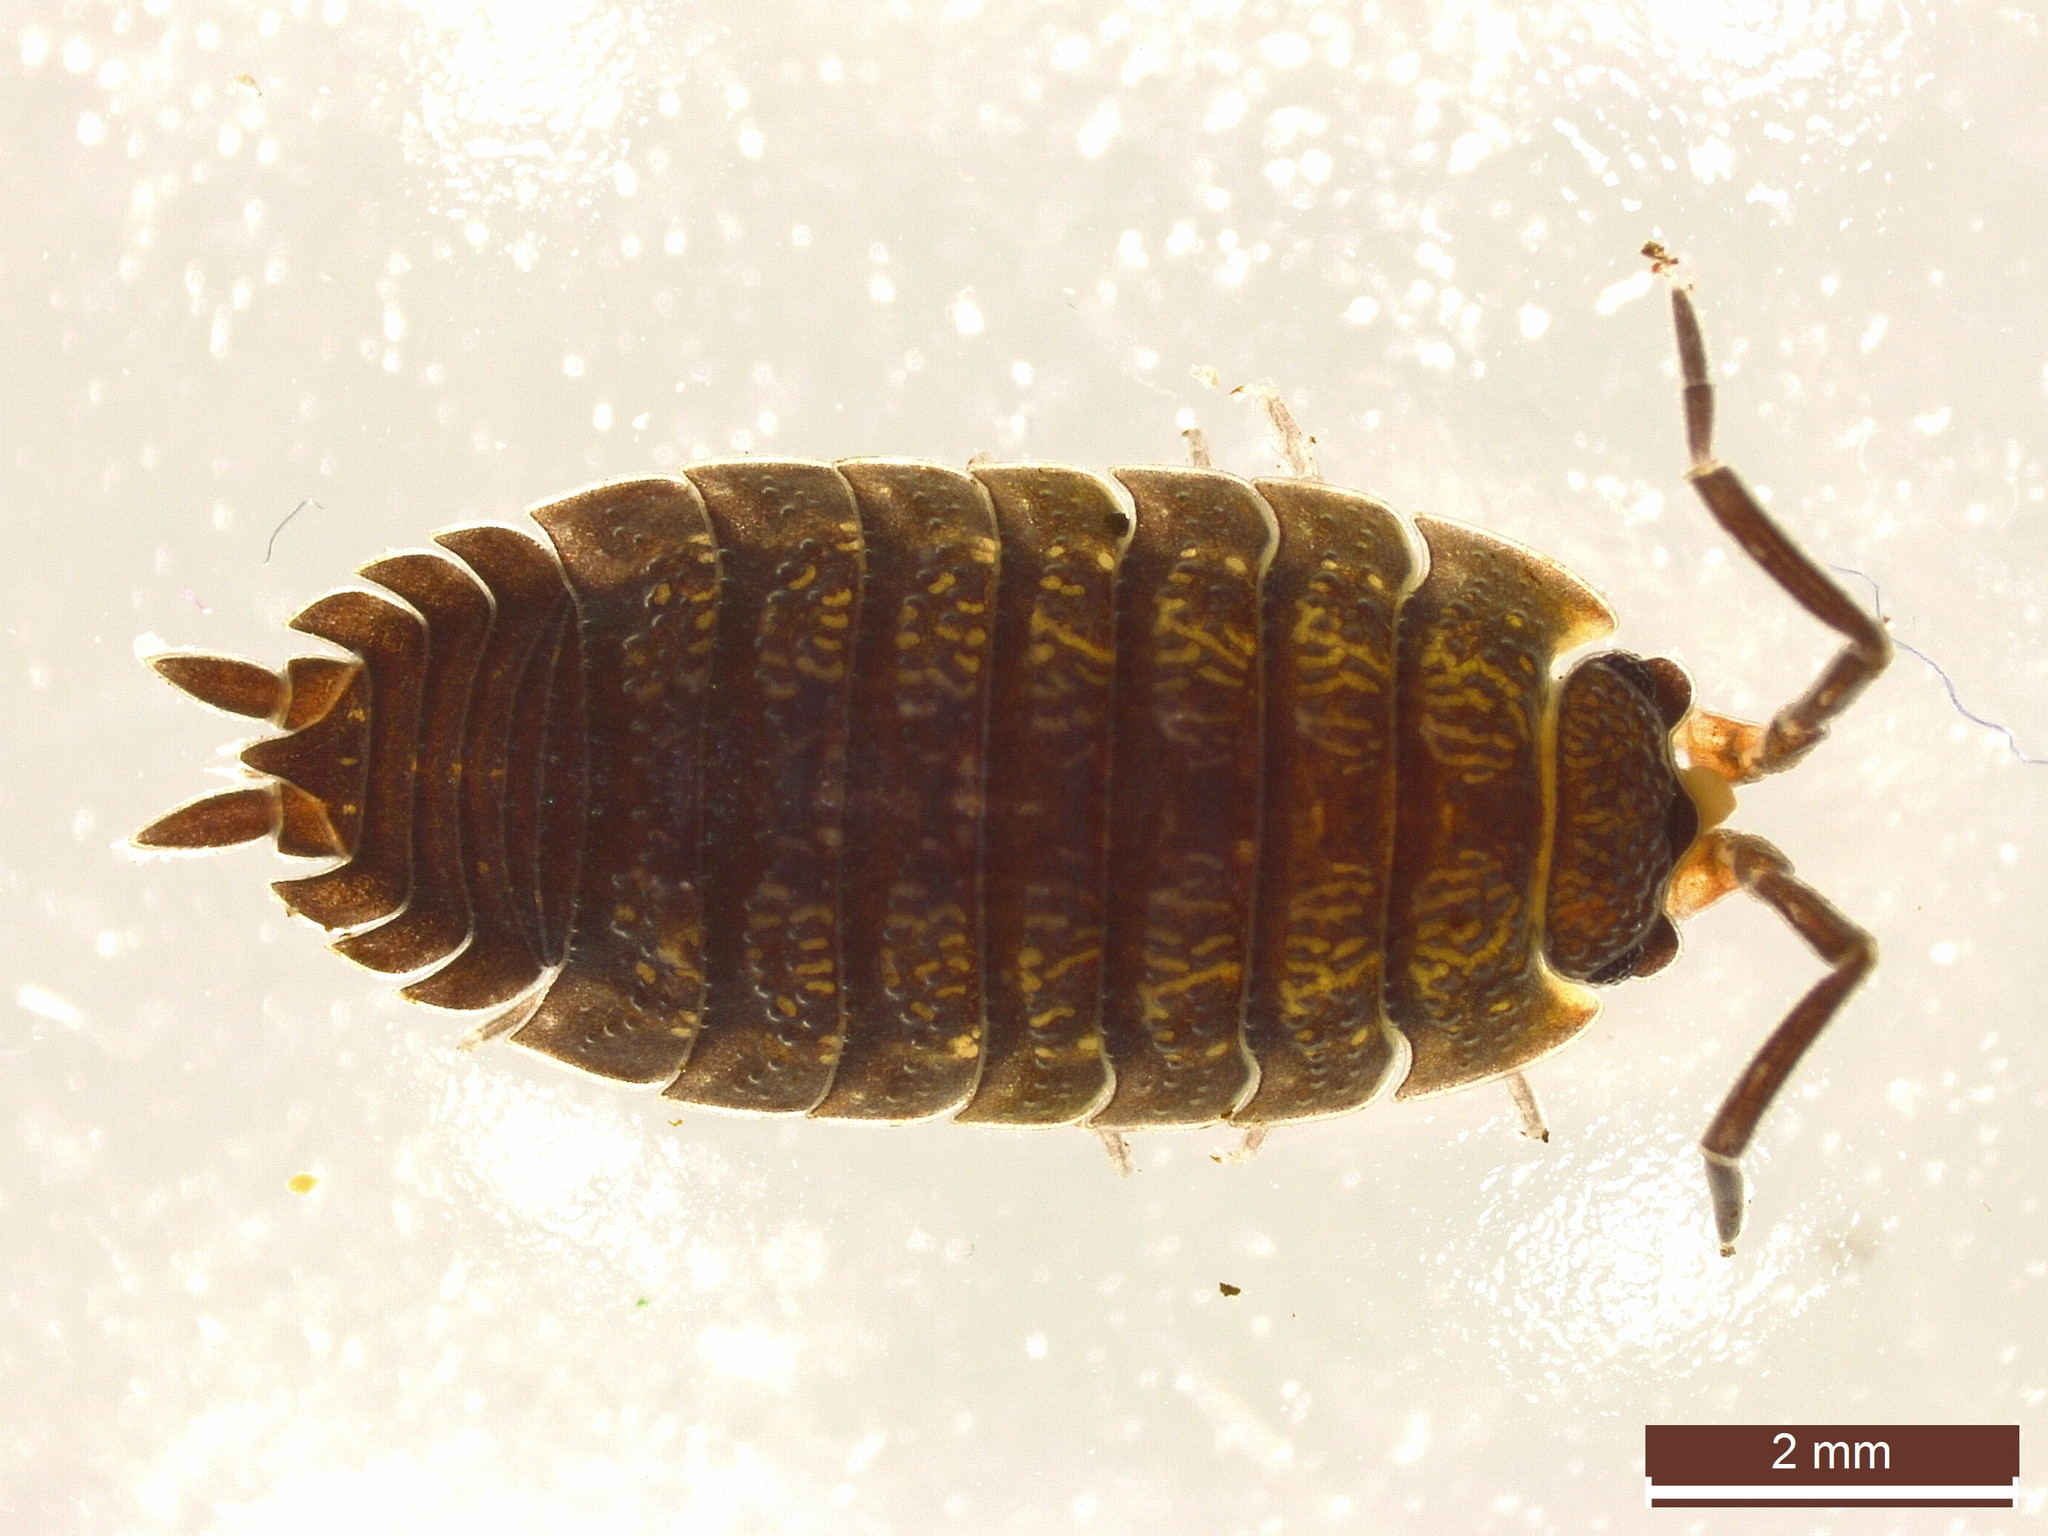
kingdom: Animalia
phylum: Arthropoda
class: Malacostraca
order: Isopoda
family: Porcellionidae
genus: Porcellio
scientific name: Porcellio scaber
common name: Common rough woodlouse
